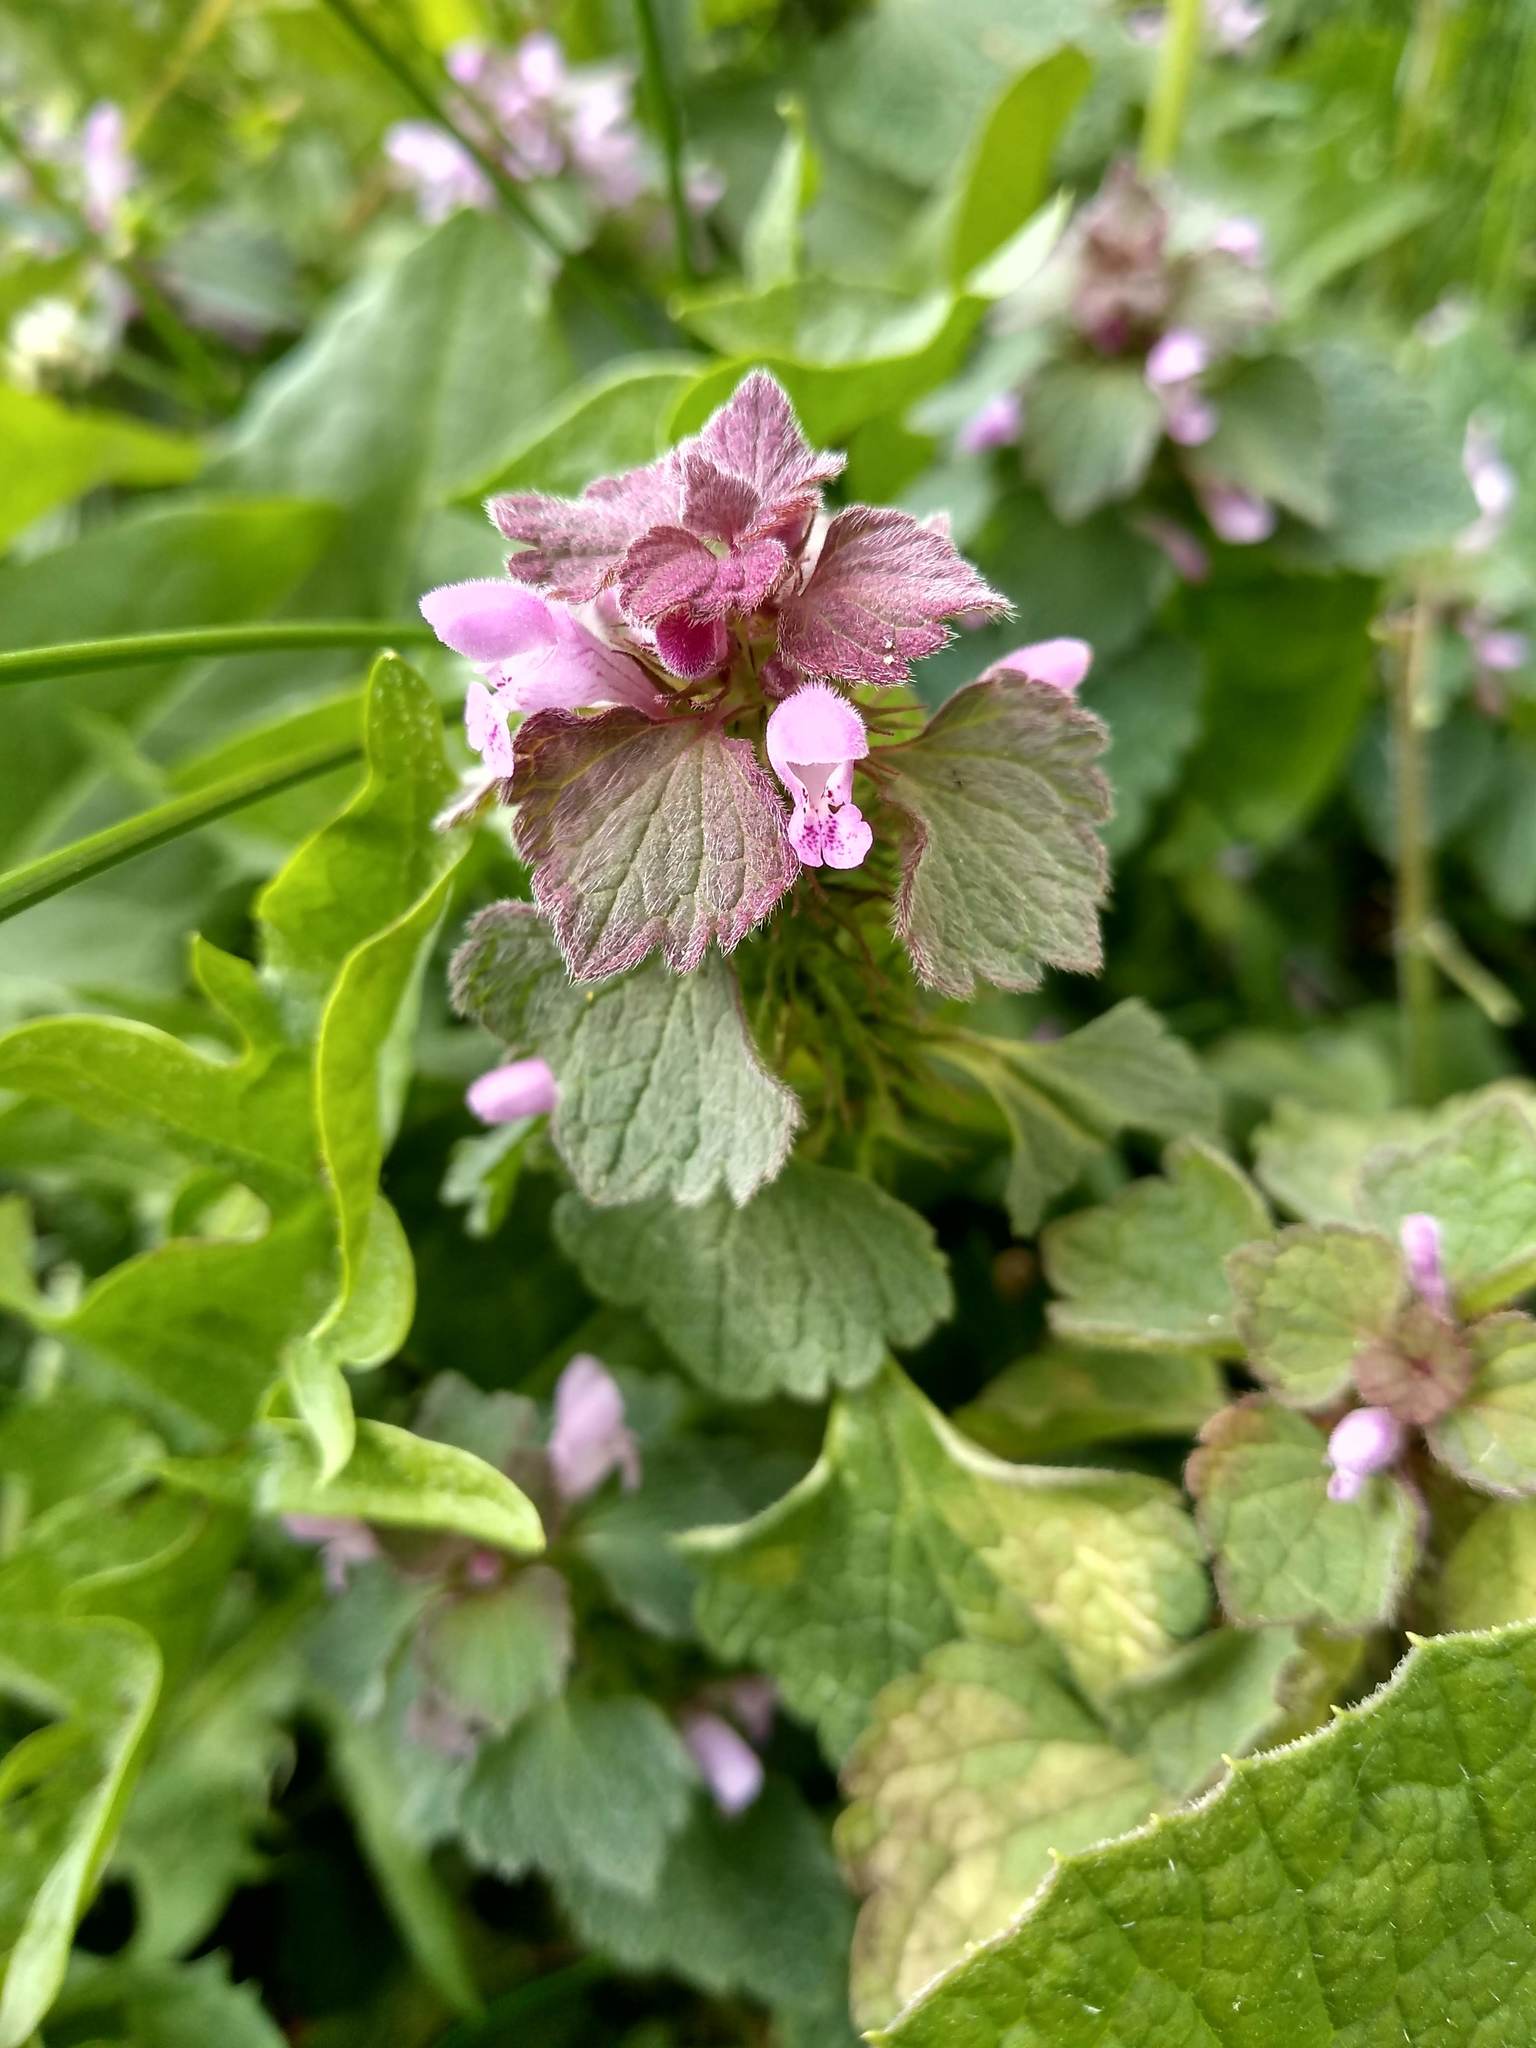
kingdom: Plantae
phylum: Tracheophyta
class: Magnoliopsida
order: Lamiales
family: Lamiaceae
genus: Lamium
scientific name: Lamium purpureum
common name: Red dead-nettle
